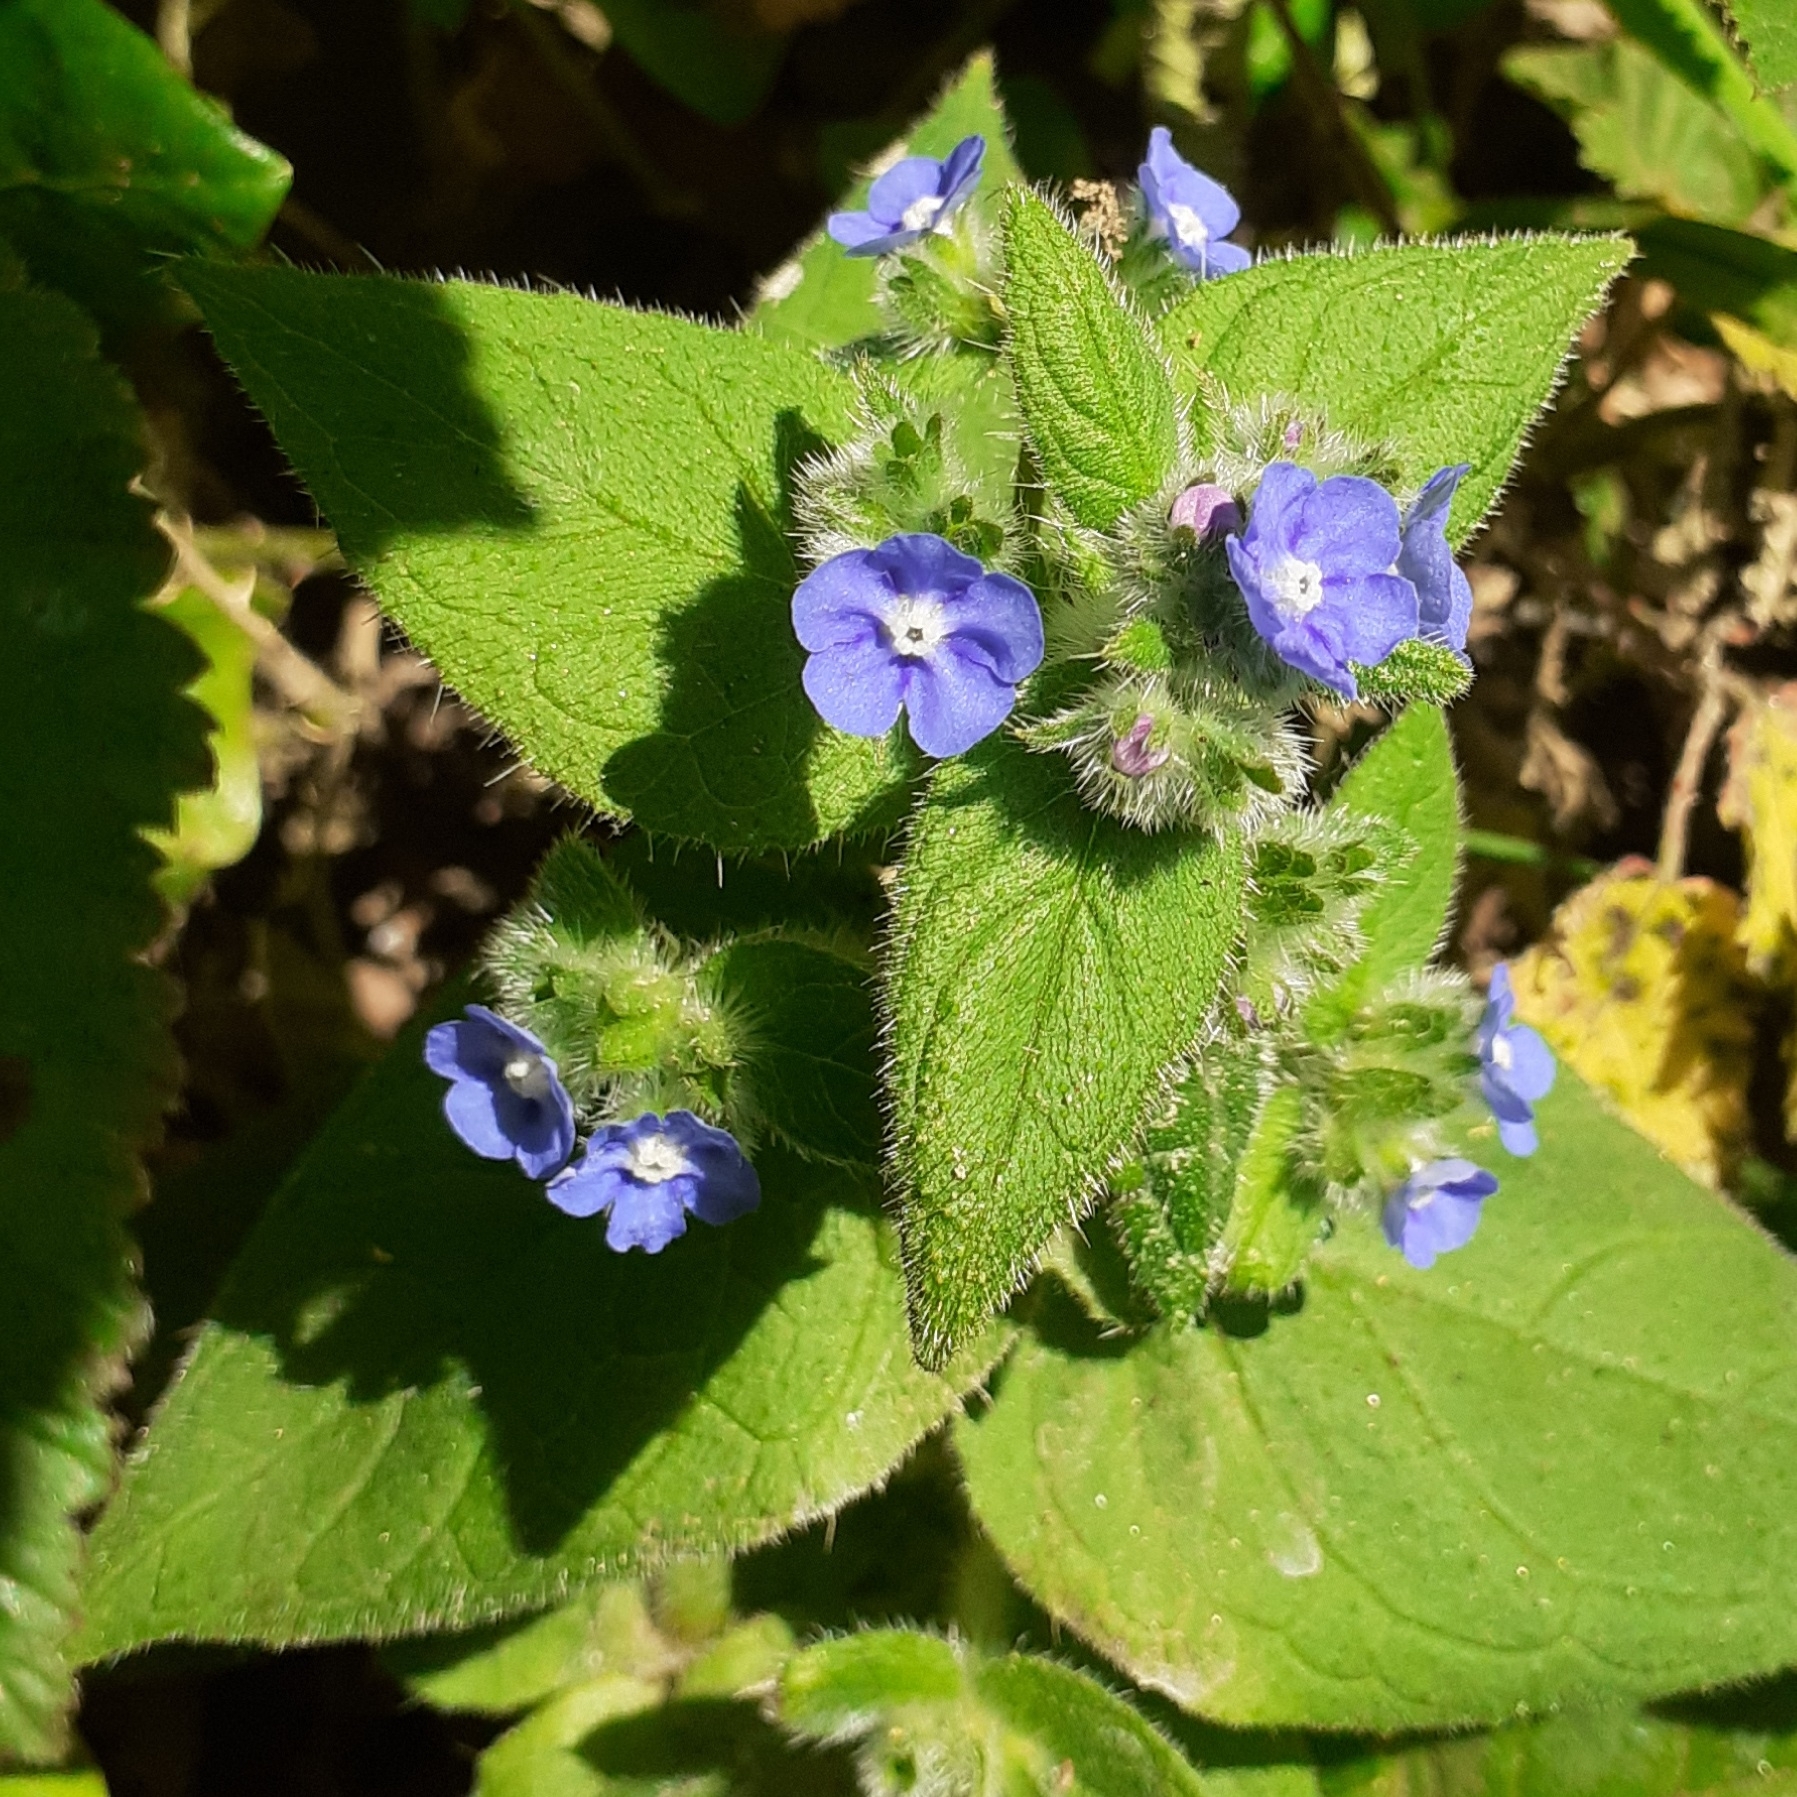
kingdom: Plantae
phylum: Tracheophyta
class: Magnoliopsida
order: Boraginales
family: Boraginaceae
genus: Pentaglottis
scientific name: Pentaglottis sempervirens
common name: Green alkanet
